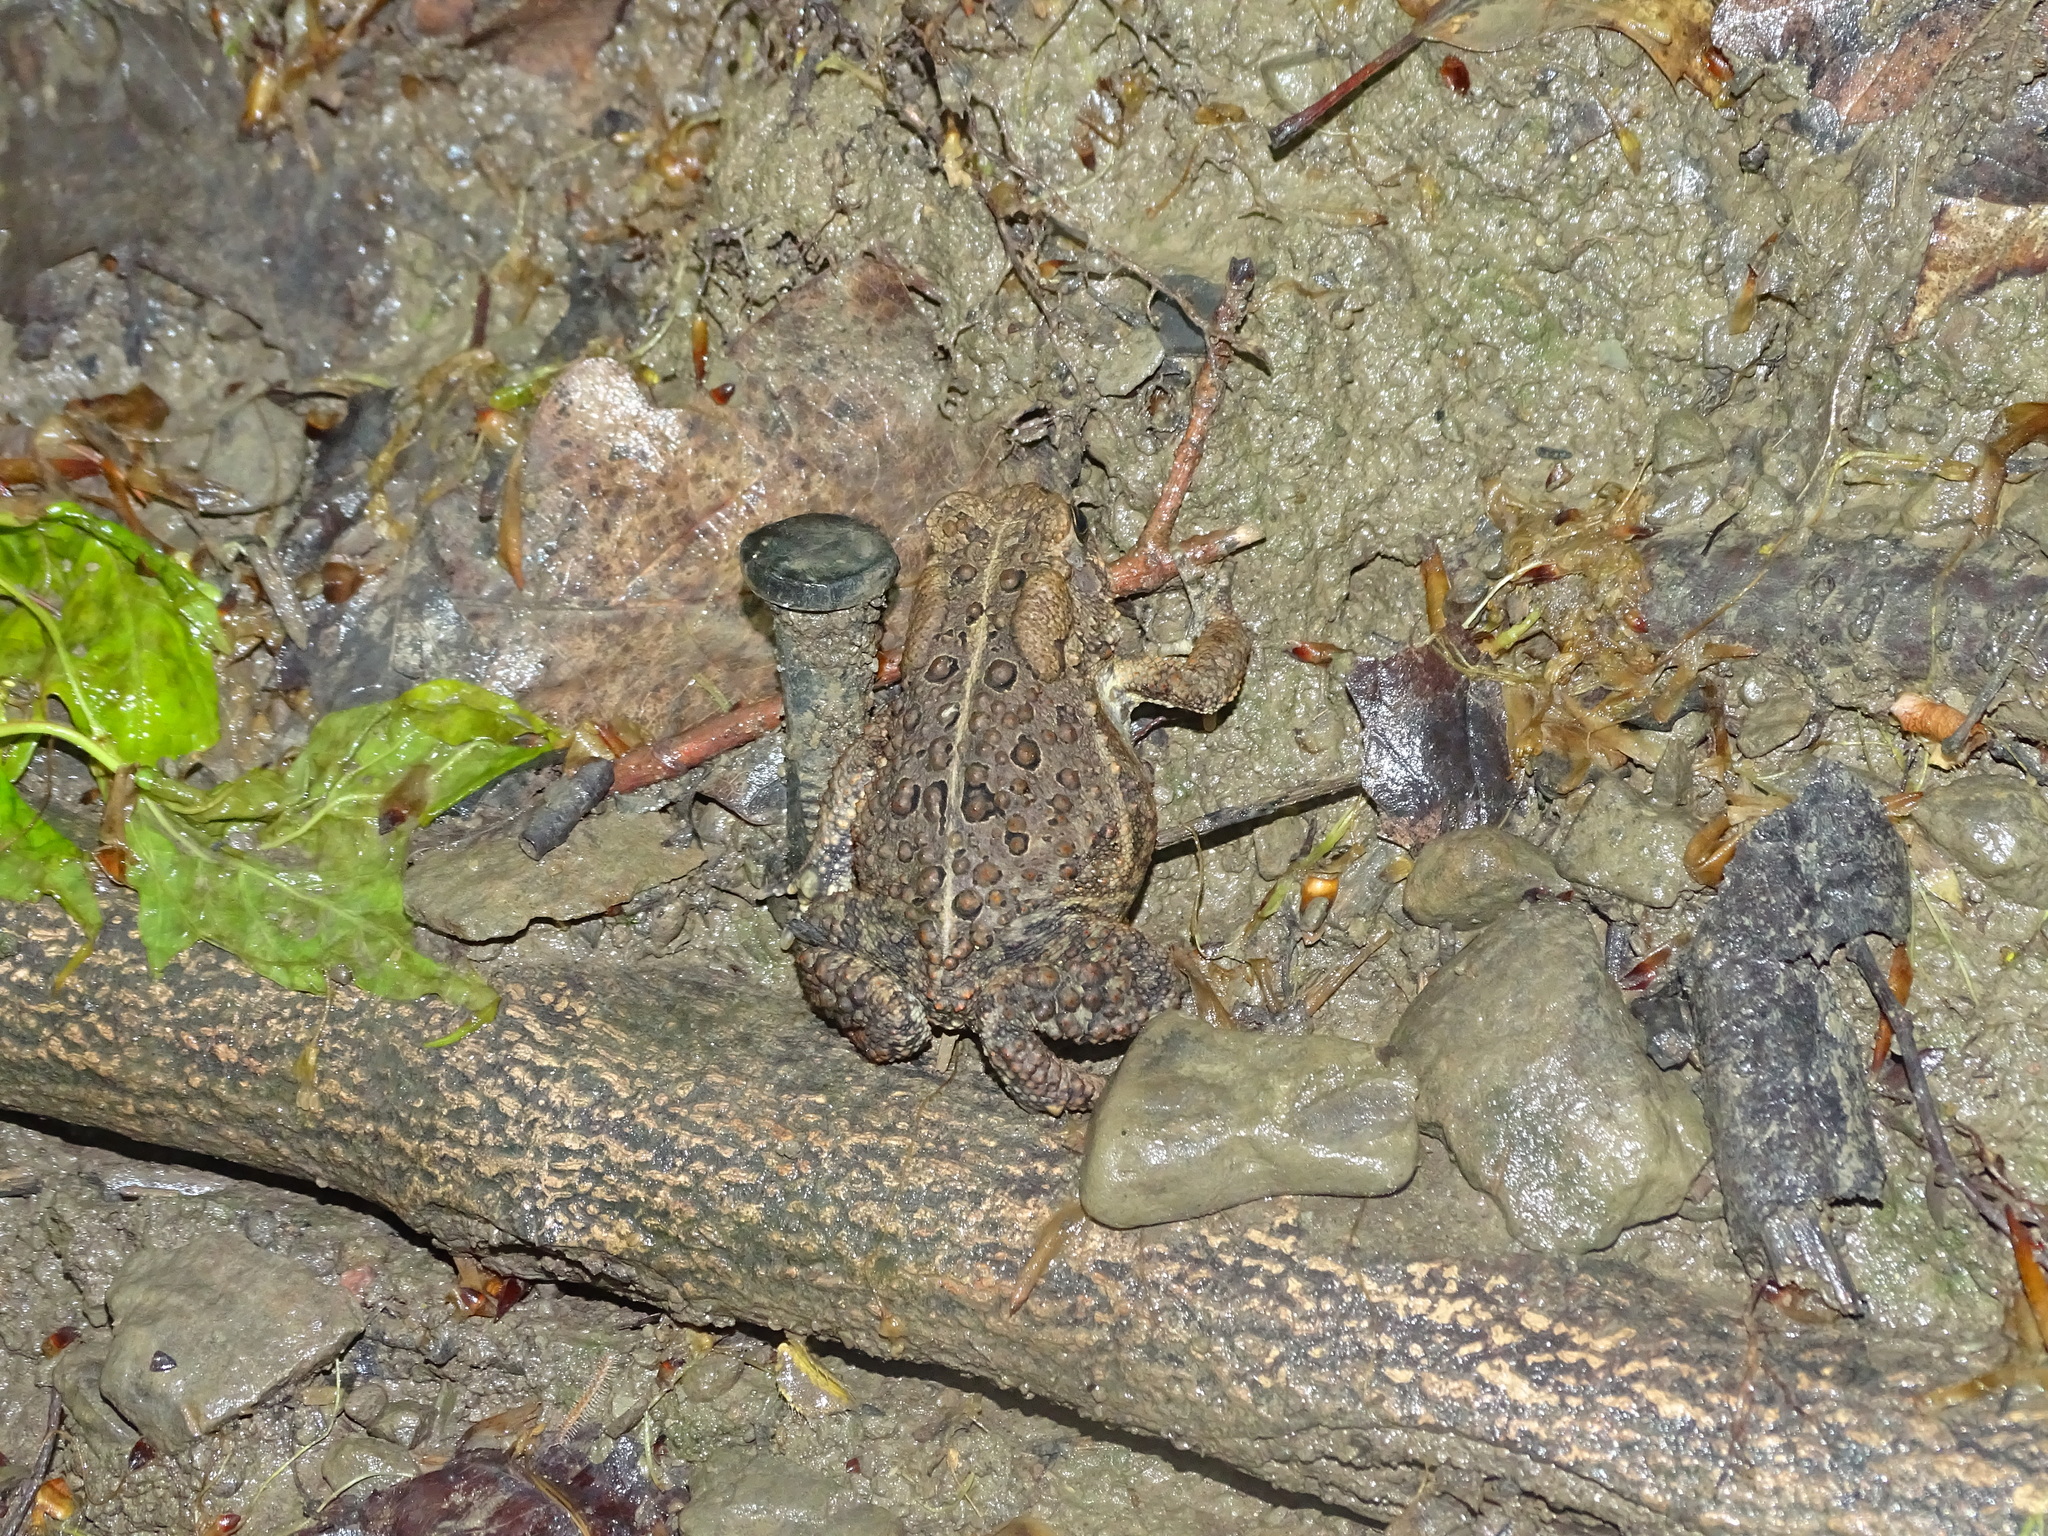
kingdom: Animalia
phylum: Chordata
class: Amphibia
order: Anura
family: Bufonidae
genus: Anaxyrus
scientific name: Anaxyrus americanus
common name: American toad
